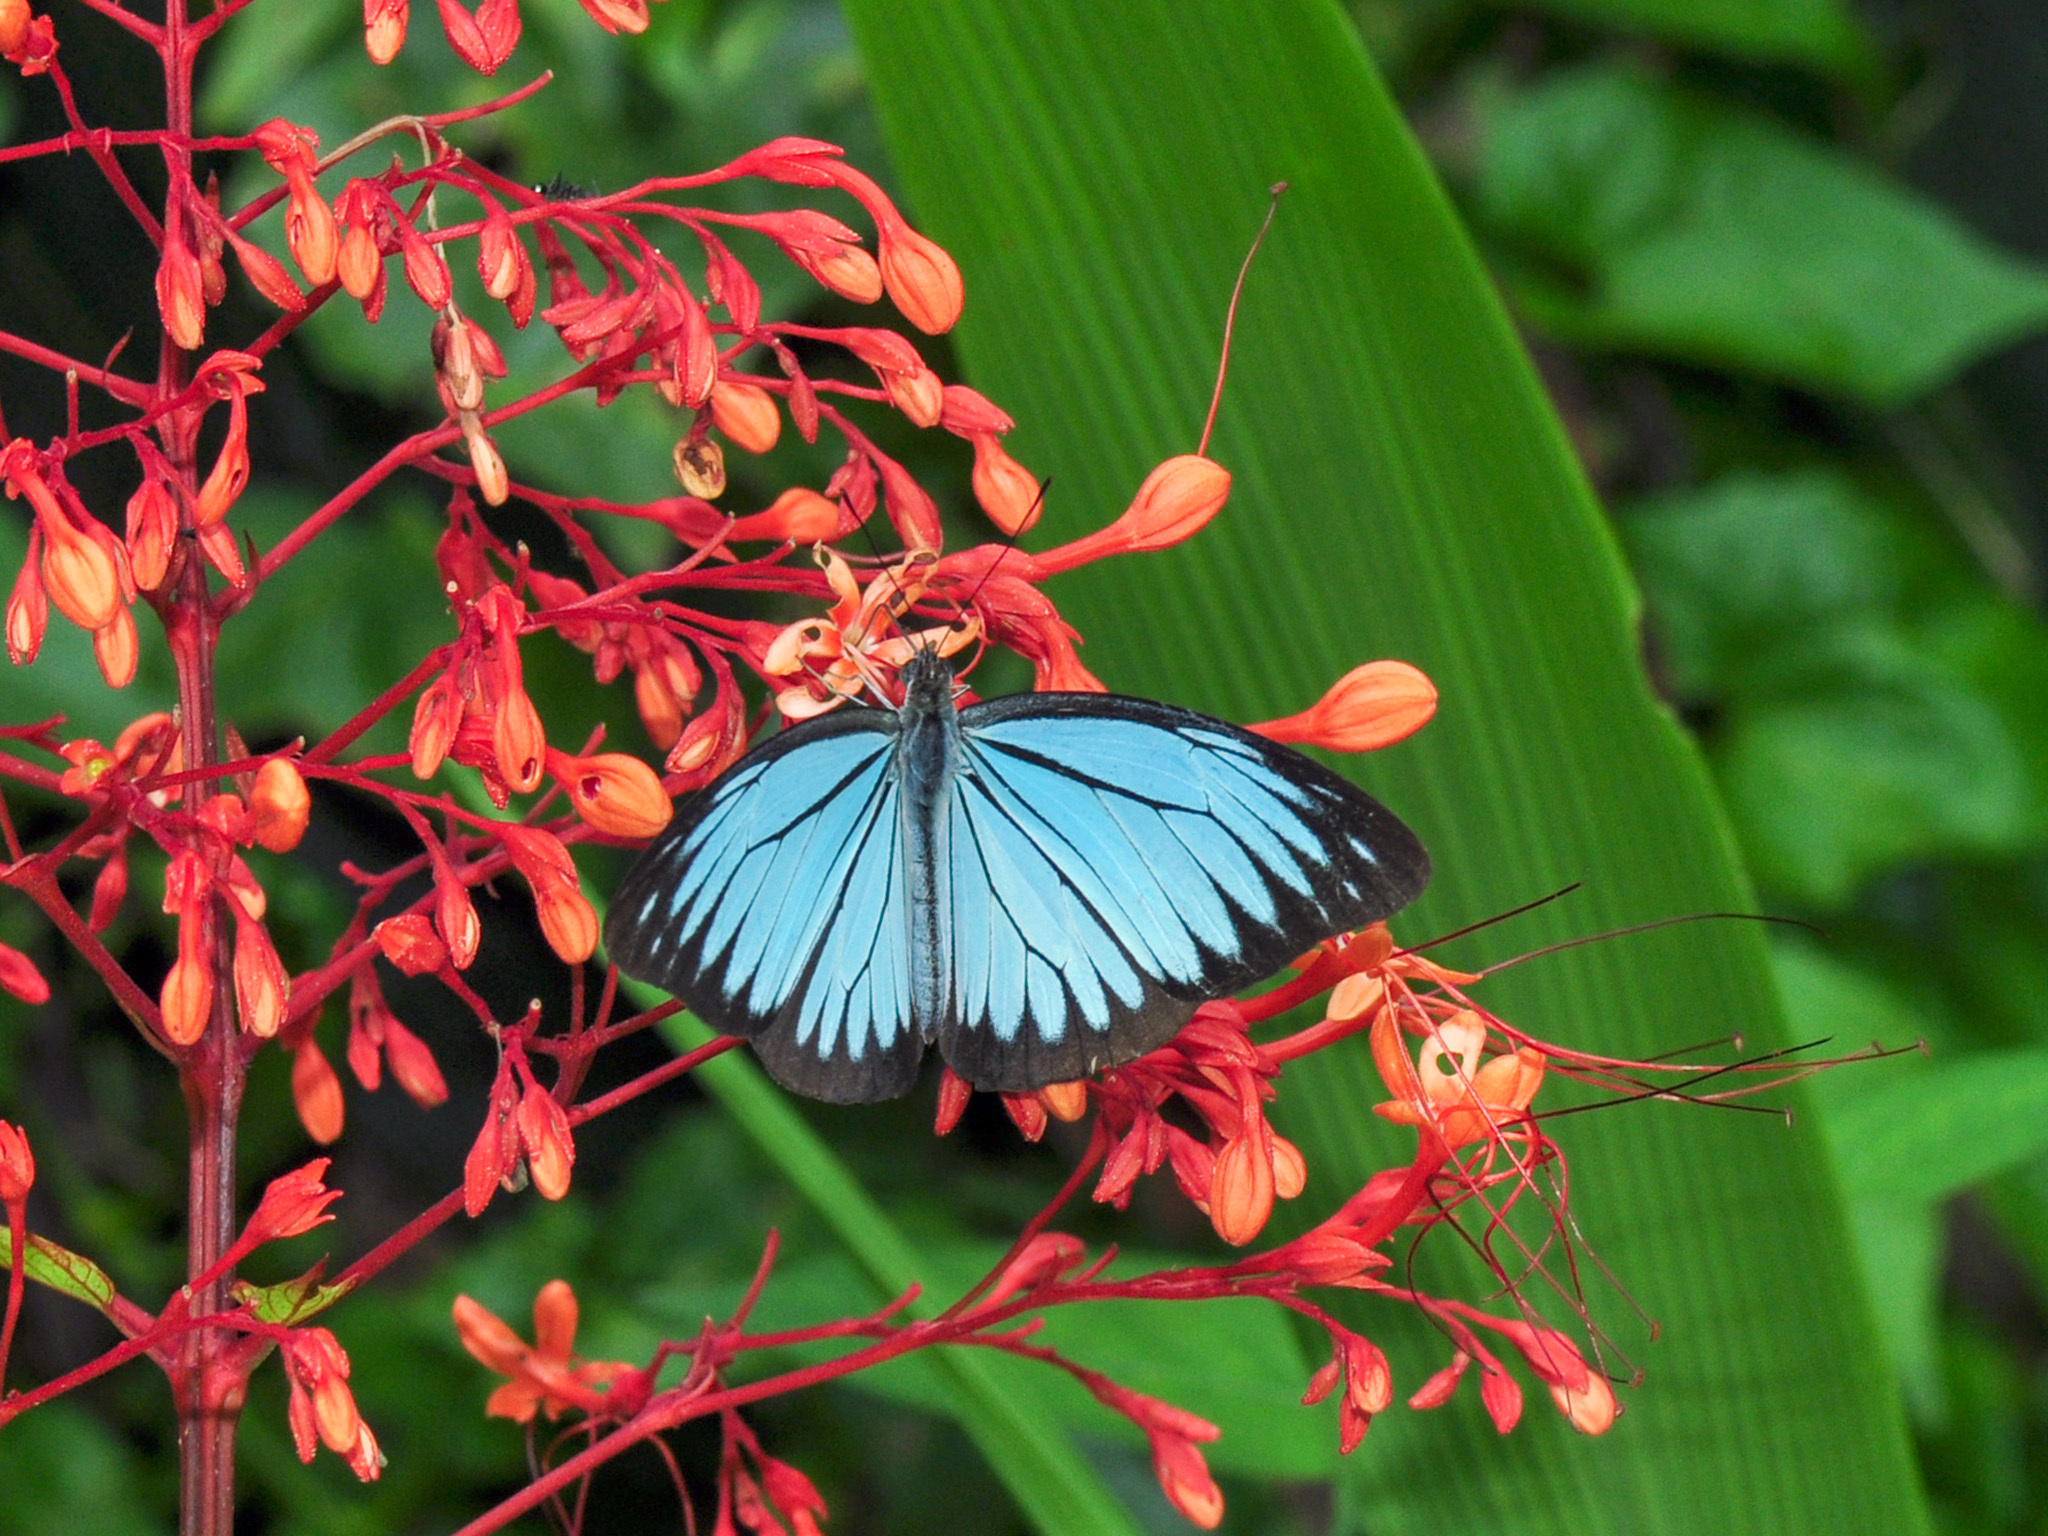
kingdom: Animalia
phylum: Arthropoda
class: Insecta
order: Lepidoptera
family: Pieridae
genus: Pareronia
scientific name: Pareronia valeria
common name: Common wanderer?
